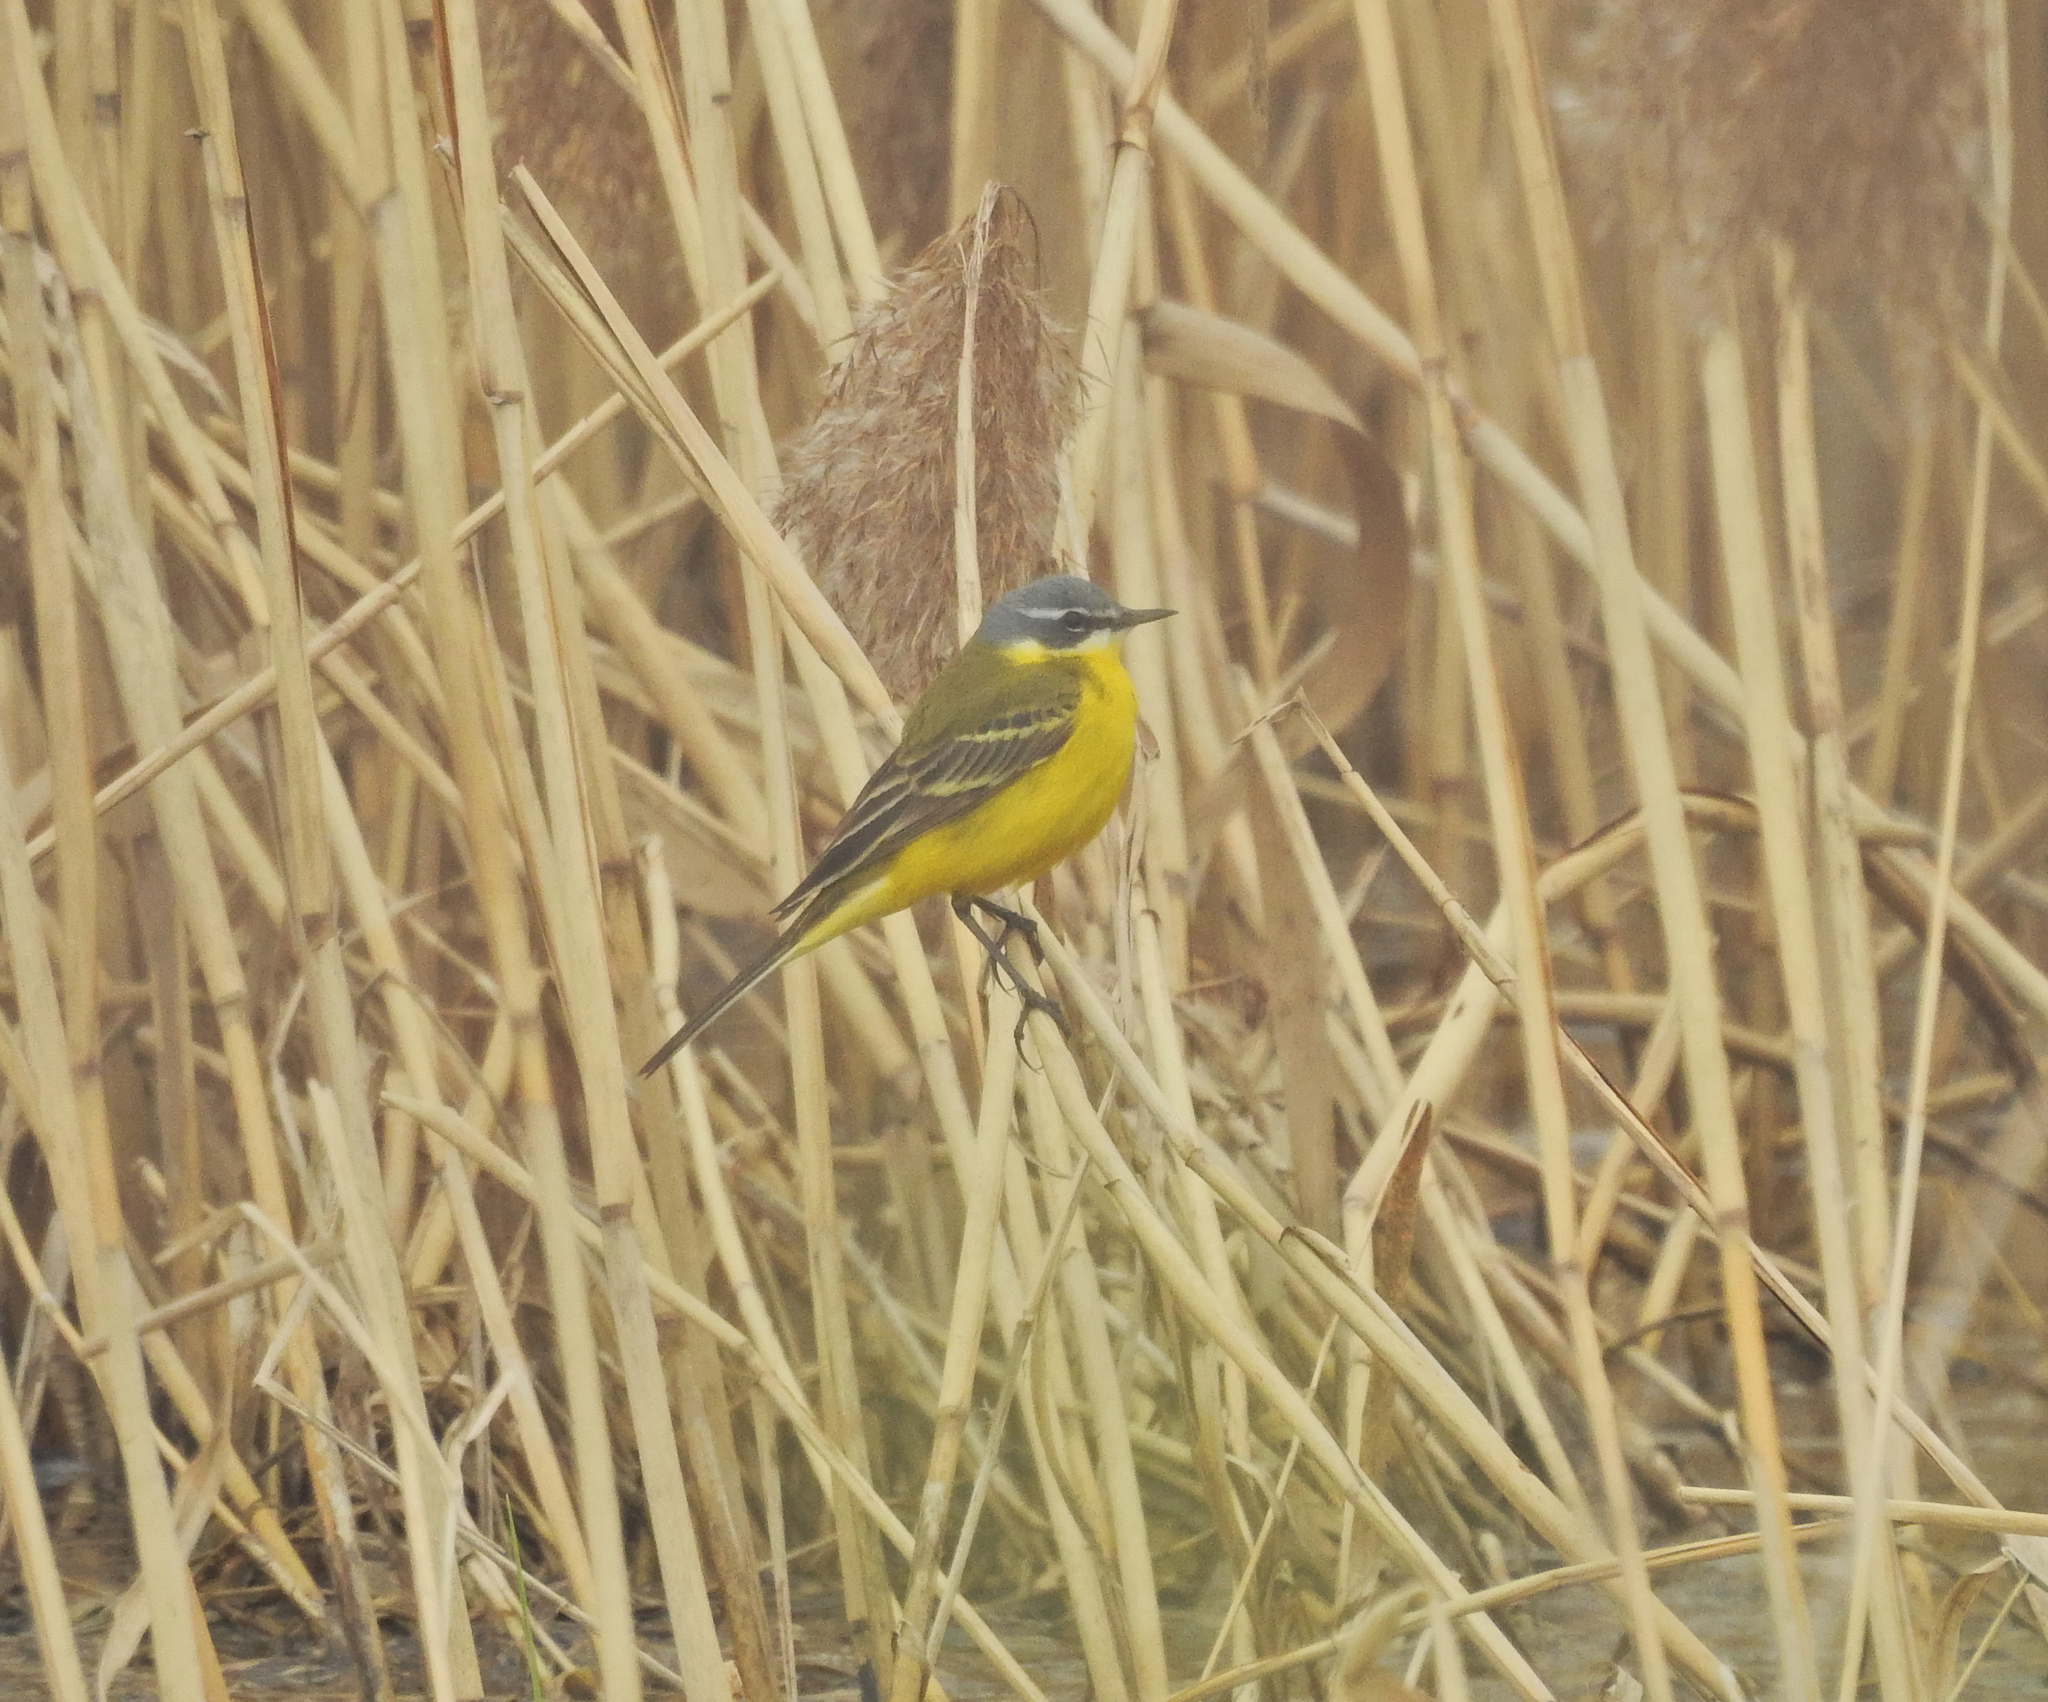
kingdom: Animalia
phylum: Chordata
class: Aves
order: Passeriformes
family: Motacillidae
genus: Motacilla
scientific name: Motacilla flava
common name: Western yellow wagtail
